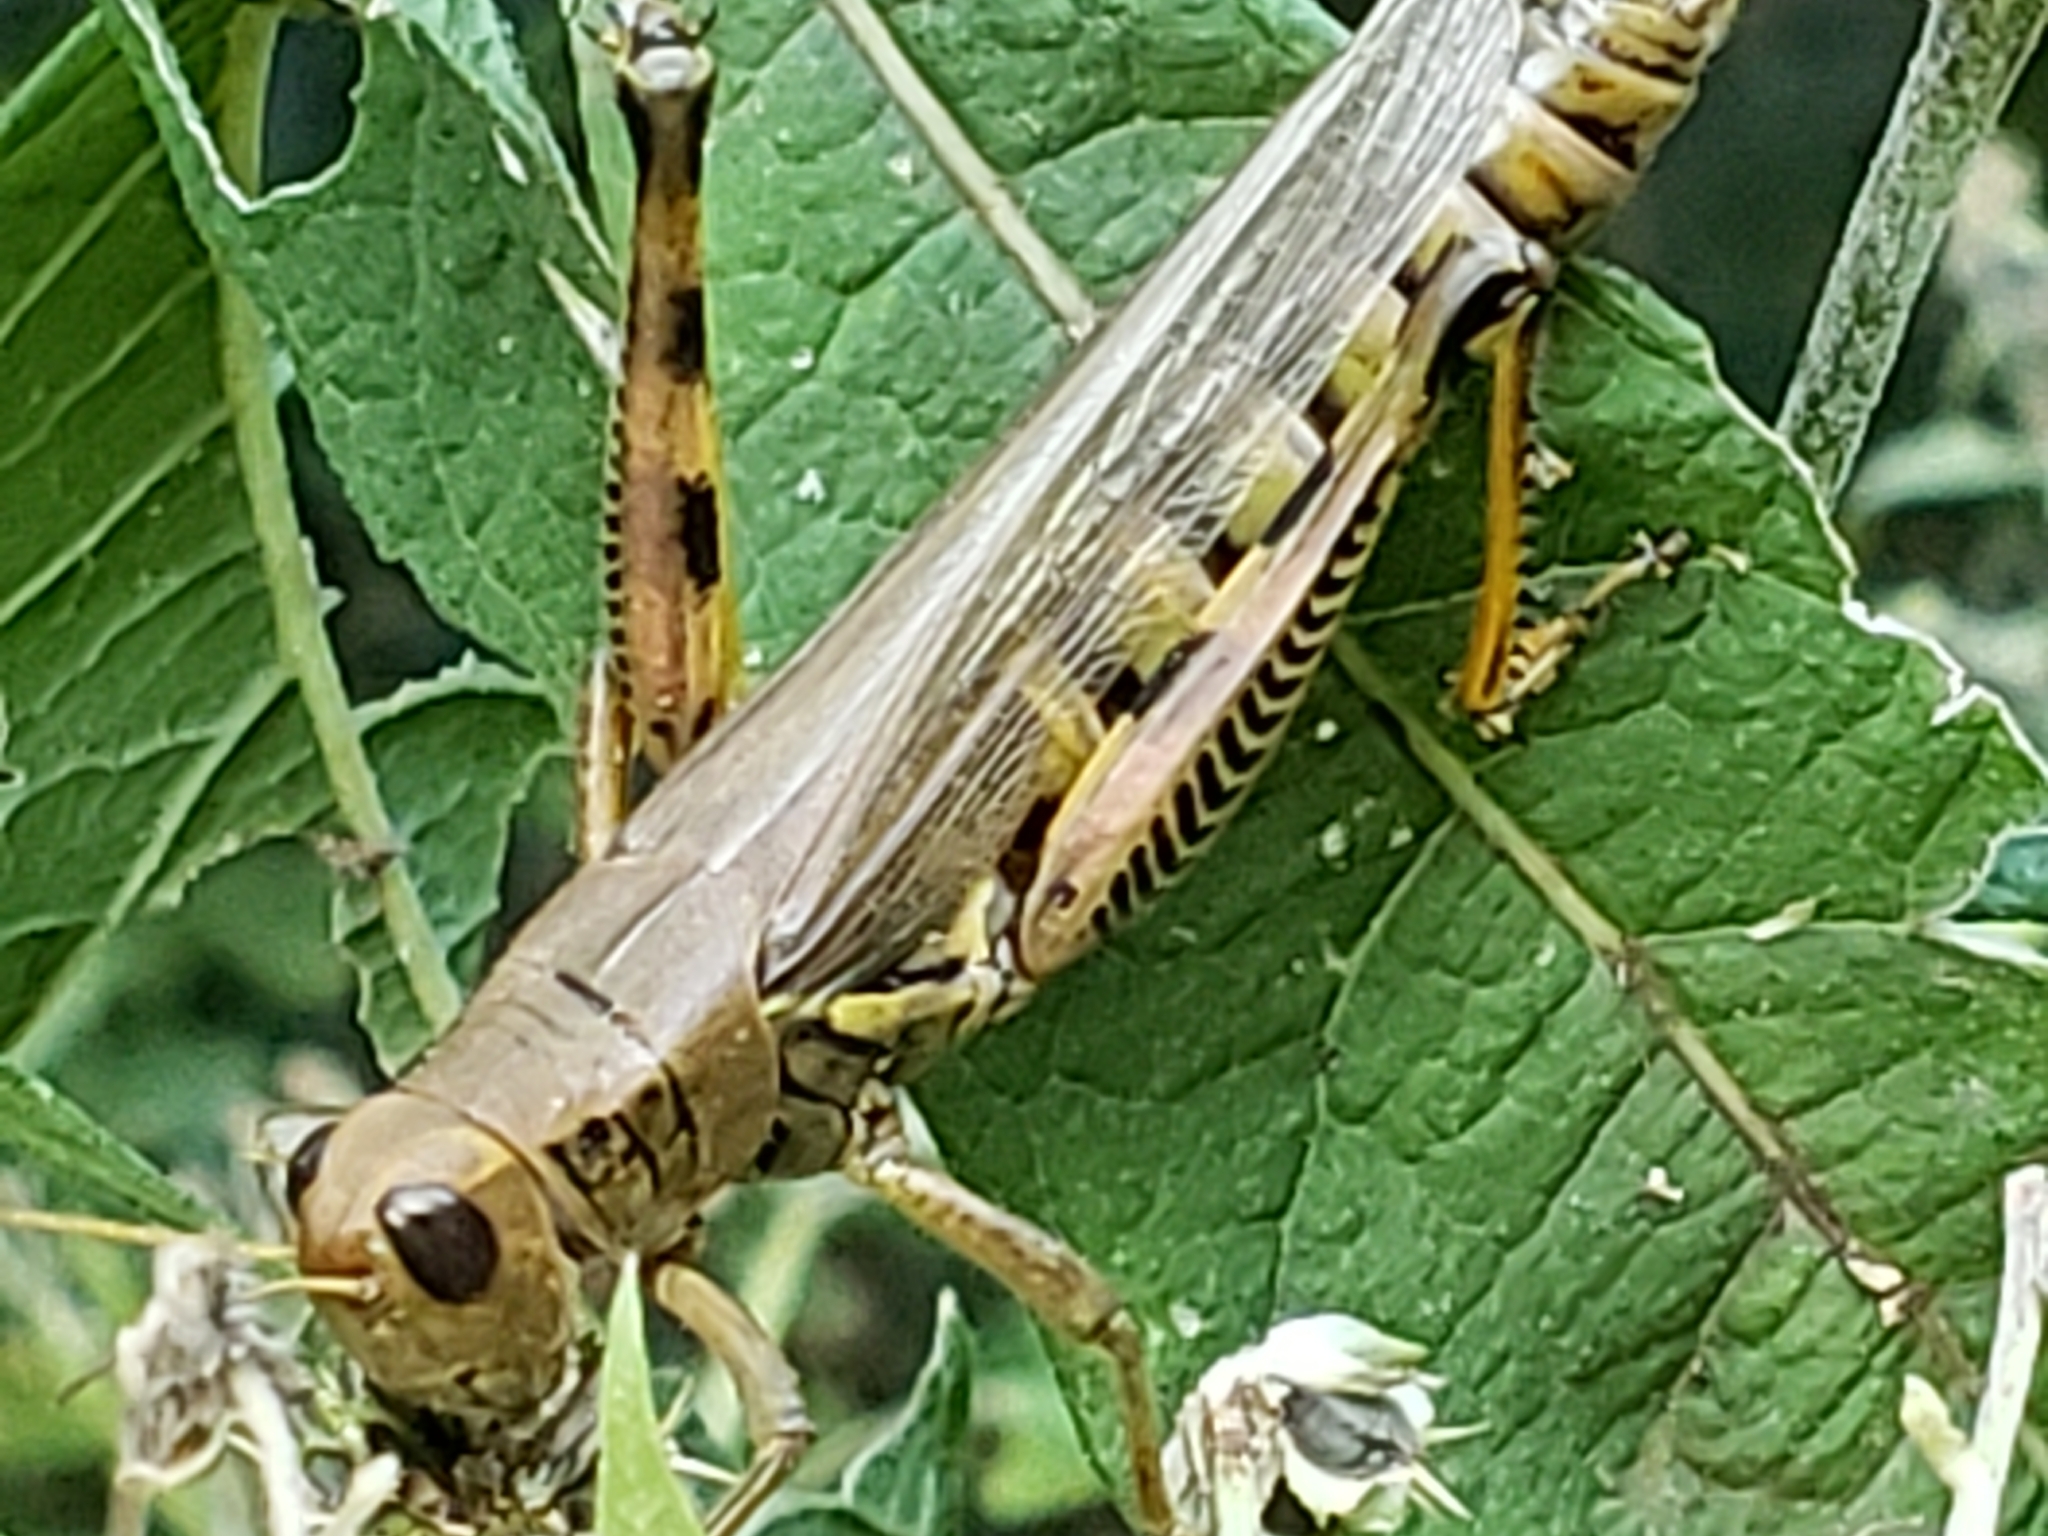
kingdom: Animalia
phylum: Arthropoda
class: Insecta
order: Orthoptera
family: Acrididae
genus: Melanoplus
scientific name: Melanoplus differentialis
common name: Differential grasshopper
